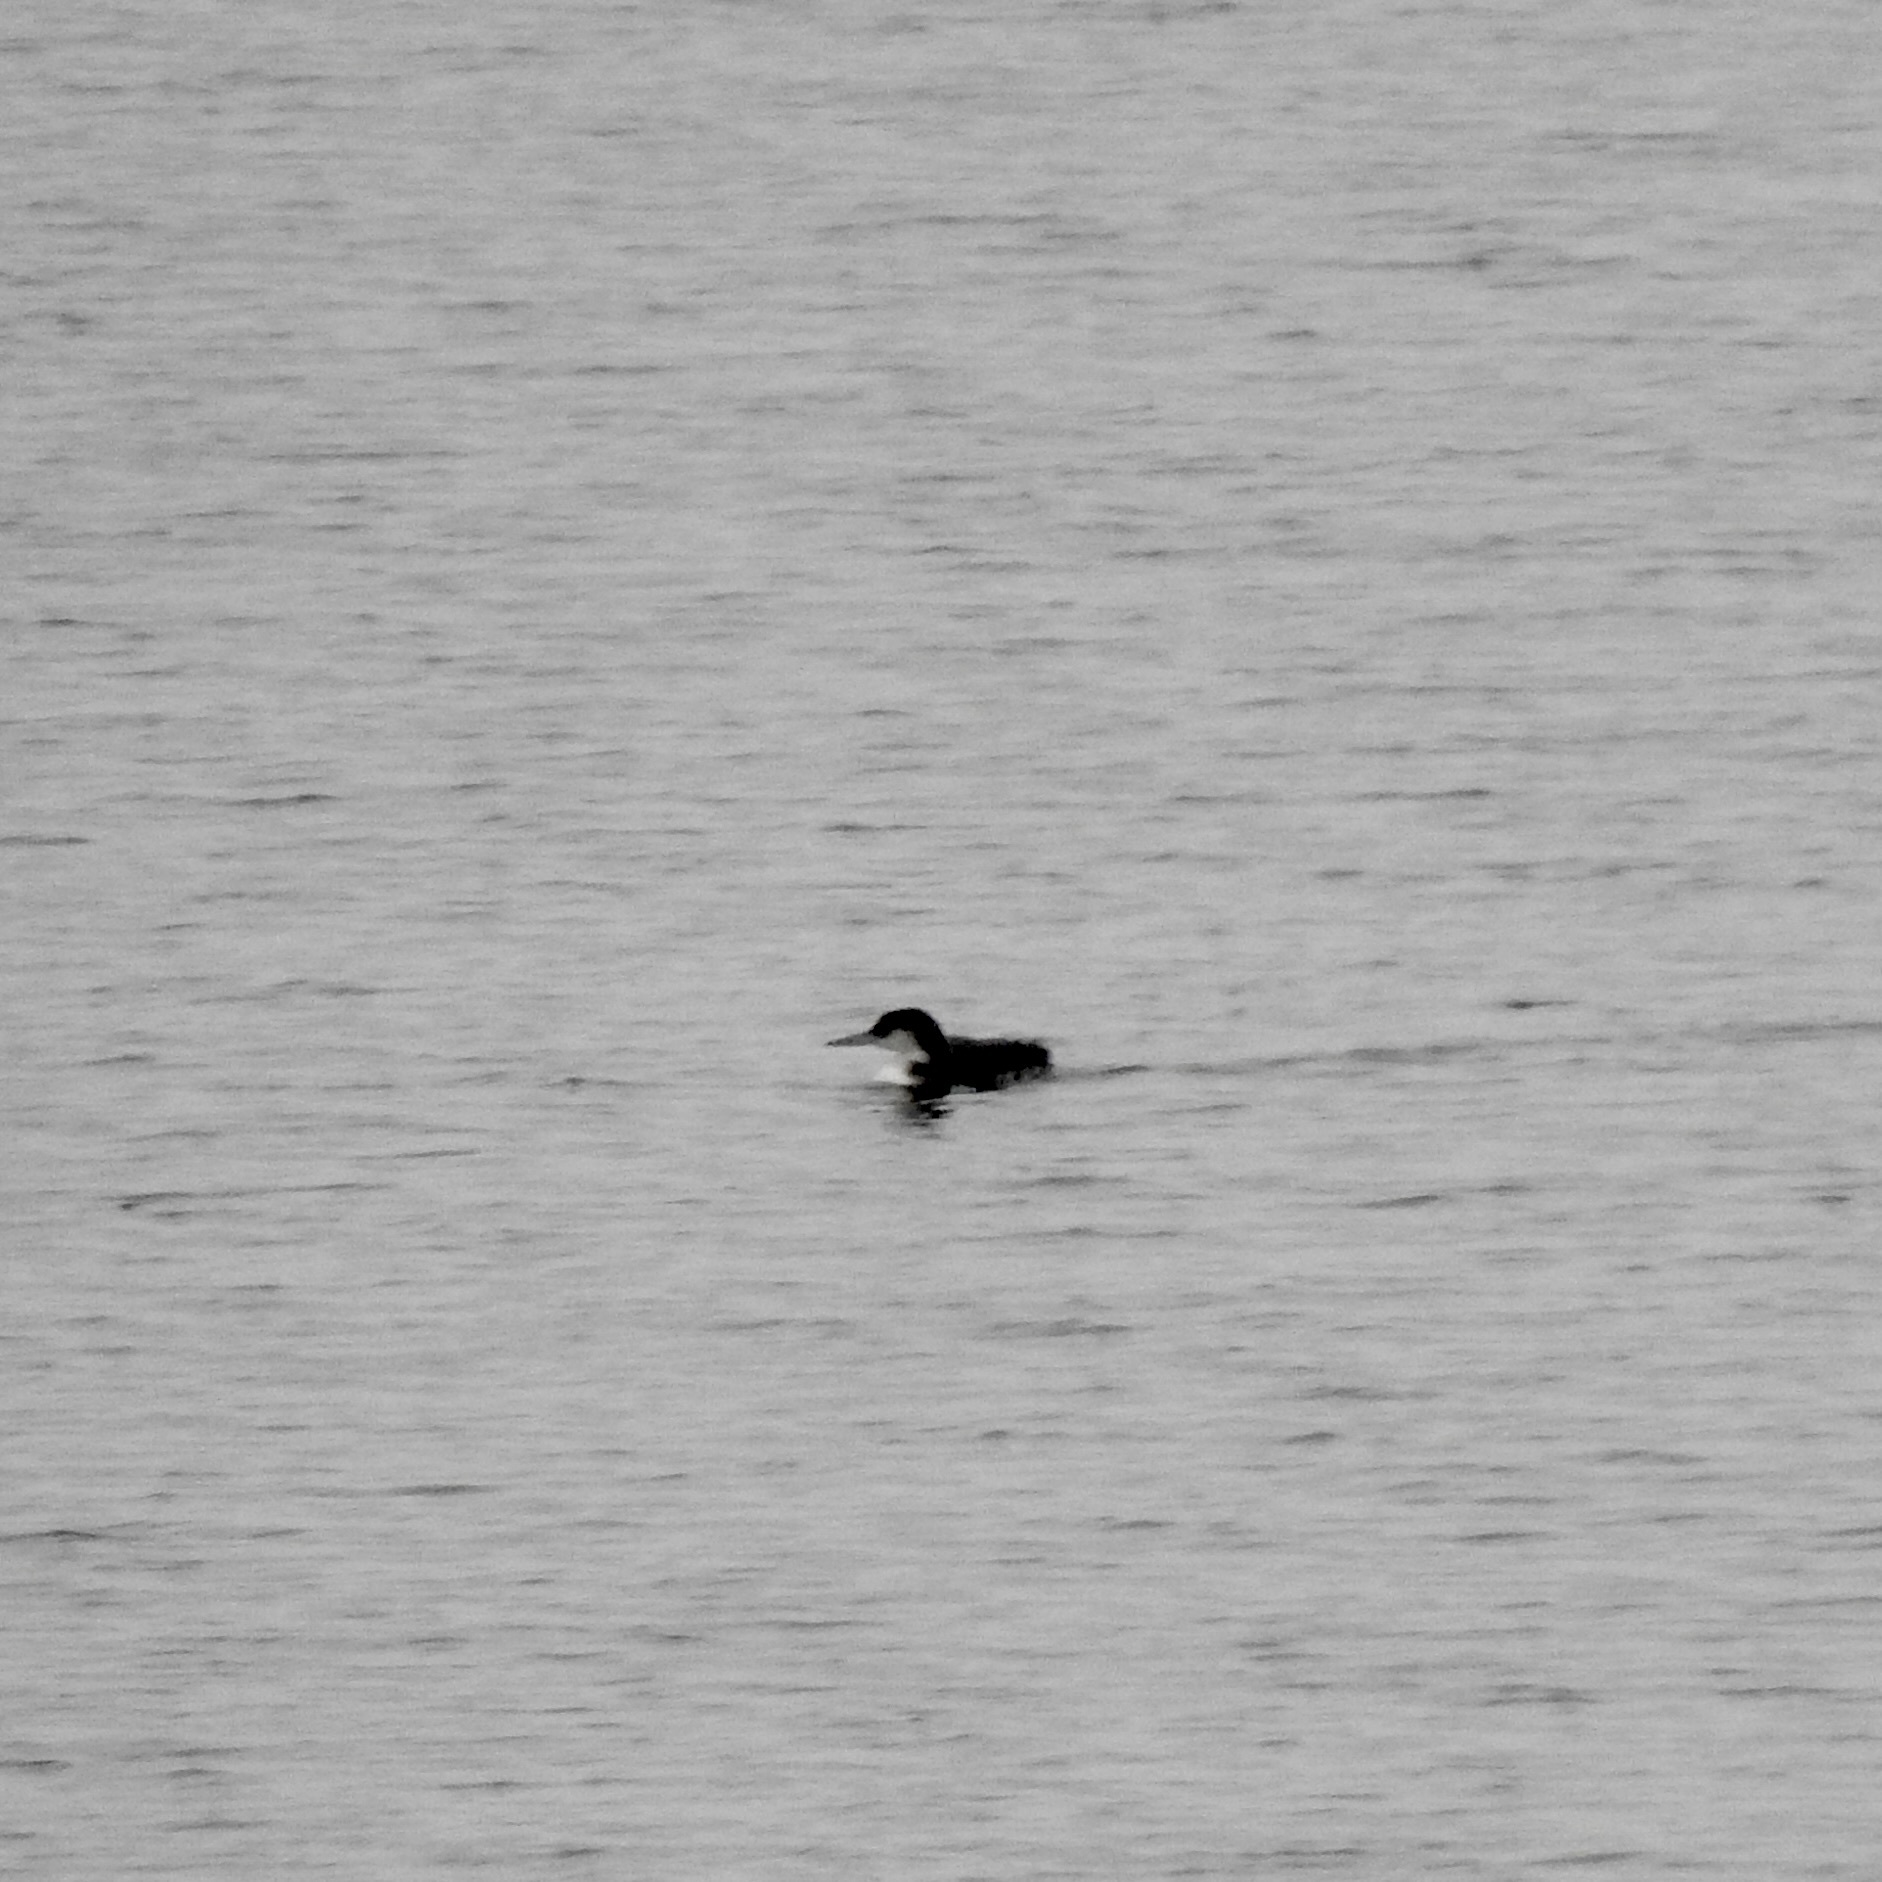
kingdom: Animalia
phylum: Chordata
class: Aves
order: Gaviiformes
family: Gaviidae
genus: Gavia
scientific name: Gavia immer
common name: Common loon
